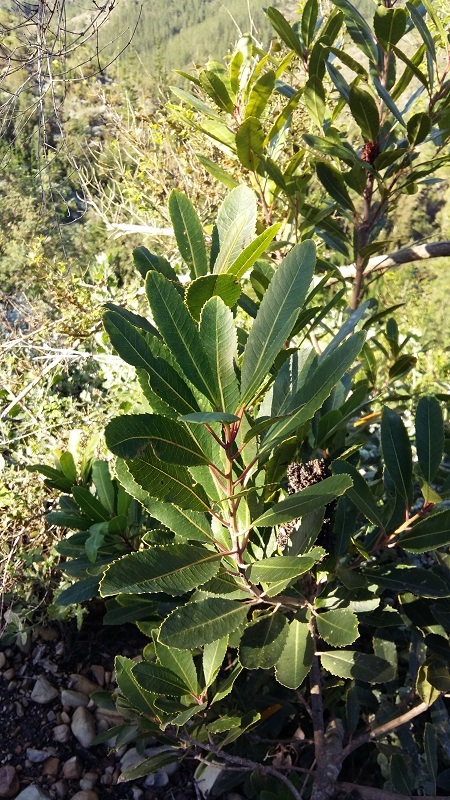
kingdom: Plantae
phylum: Tracheophyta
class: Magnoliopsida
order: Sapindales
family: Anacardiaceae
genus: Laurophyllus
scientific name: Laurophyllus capensis
